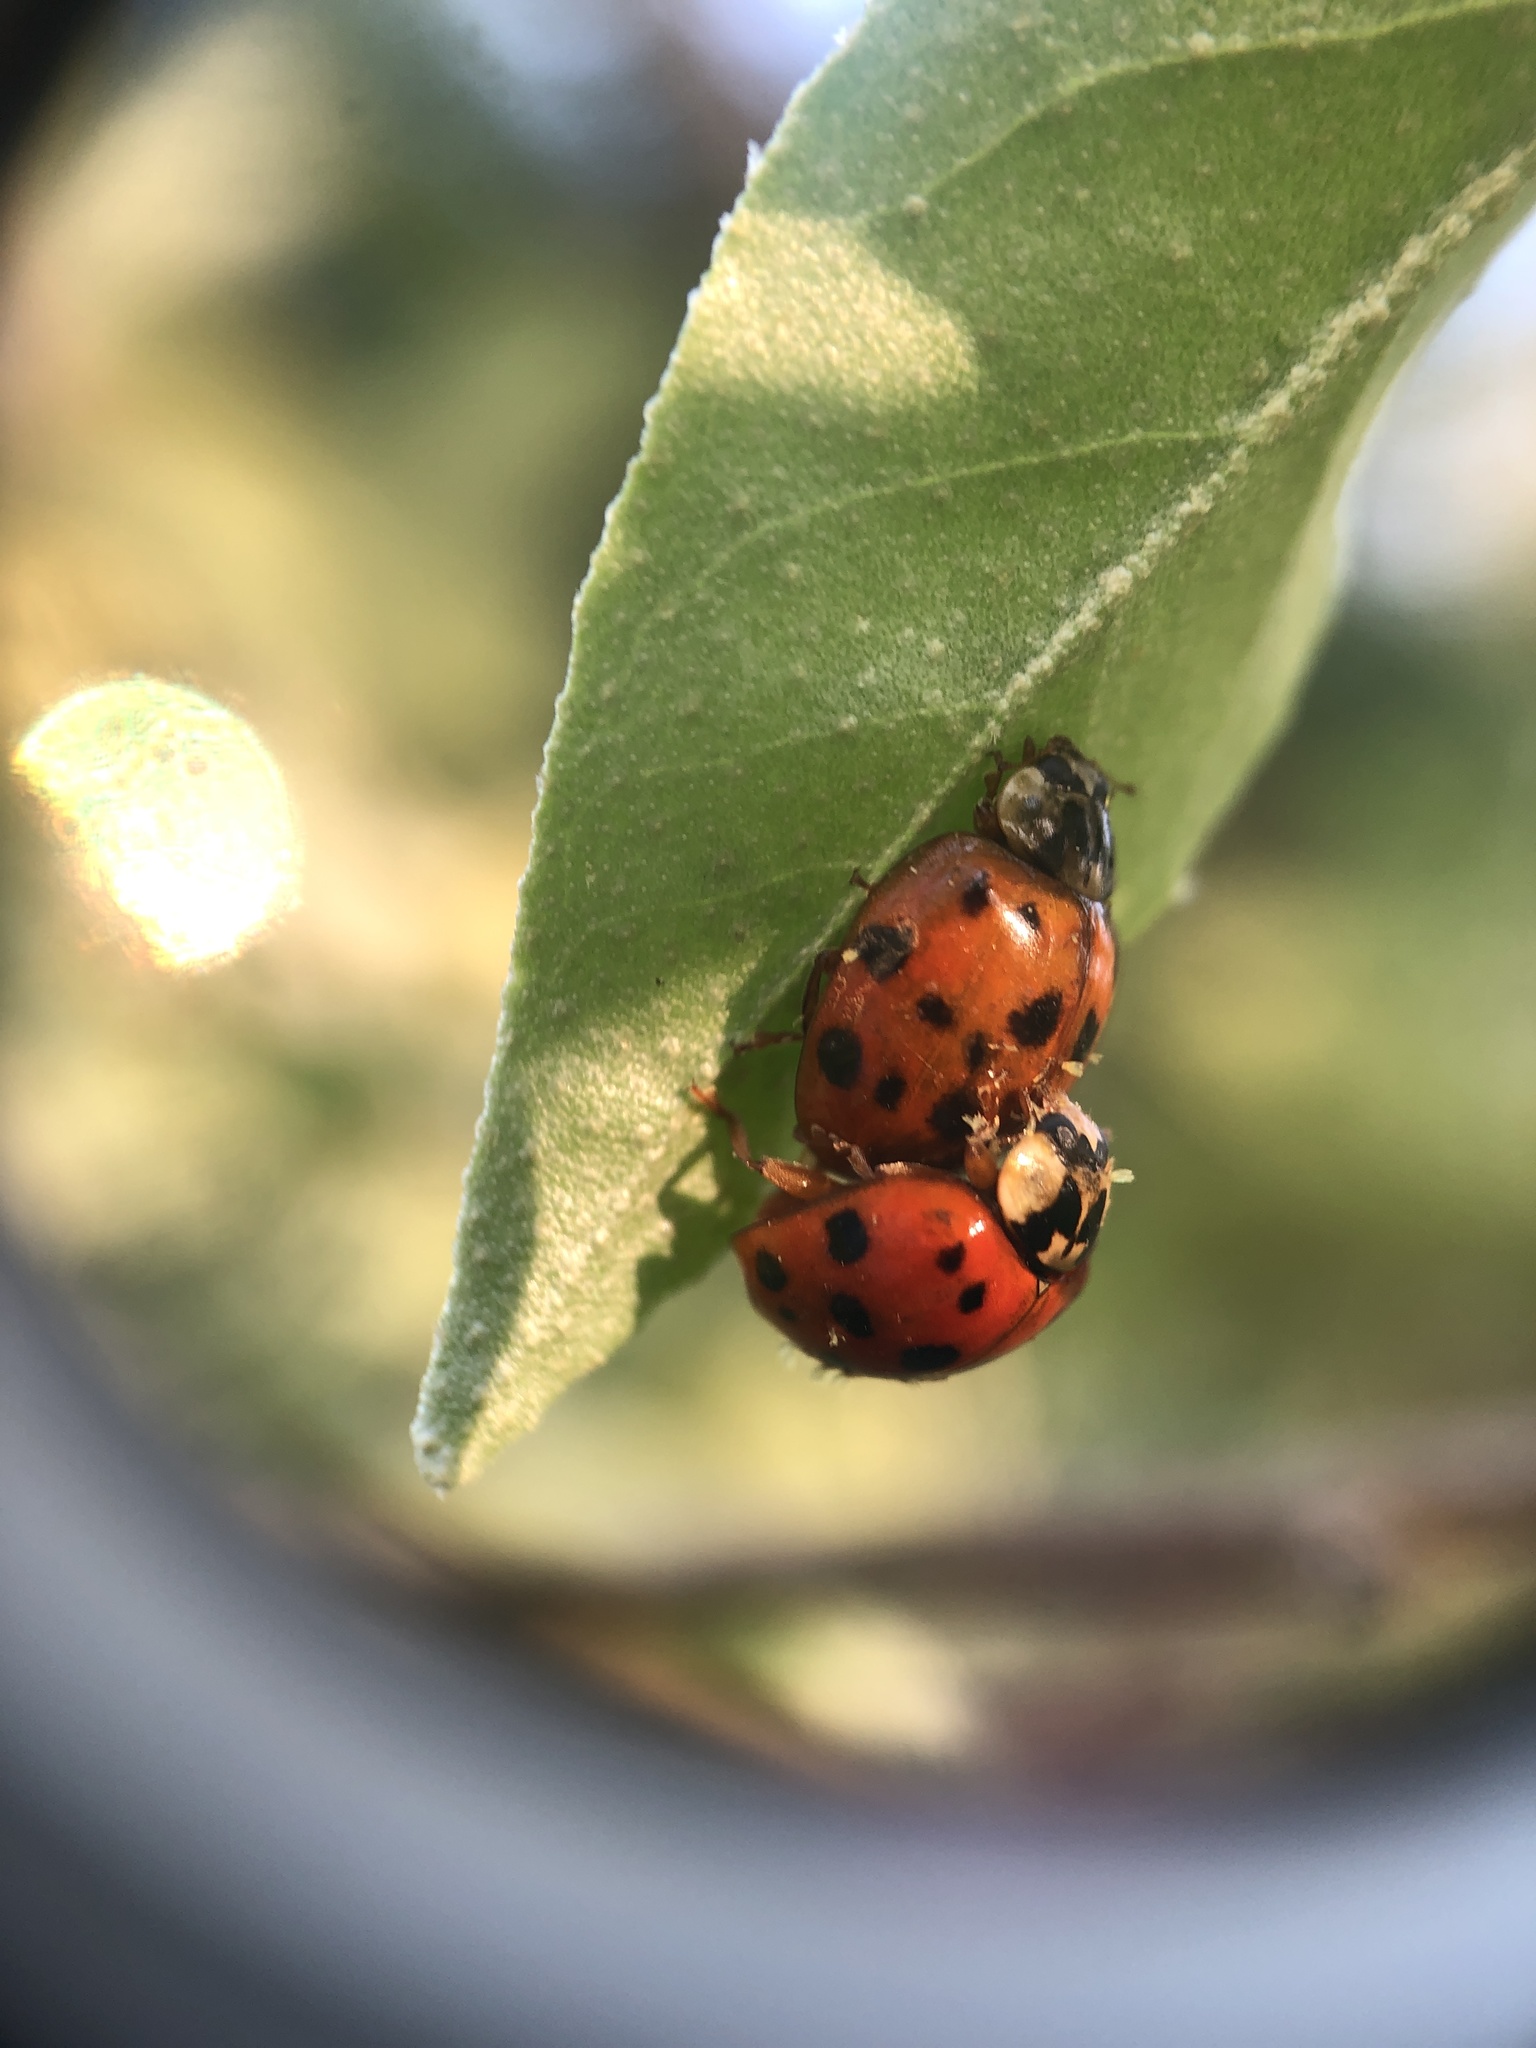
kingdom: Animalia
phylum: Arthropoda
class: Insecta
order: Coleoptera
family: Coccinellidae
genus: Harmonia
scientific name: Harmonia axyridis
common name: Harlequin ladybird
